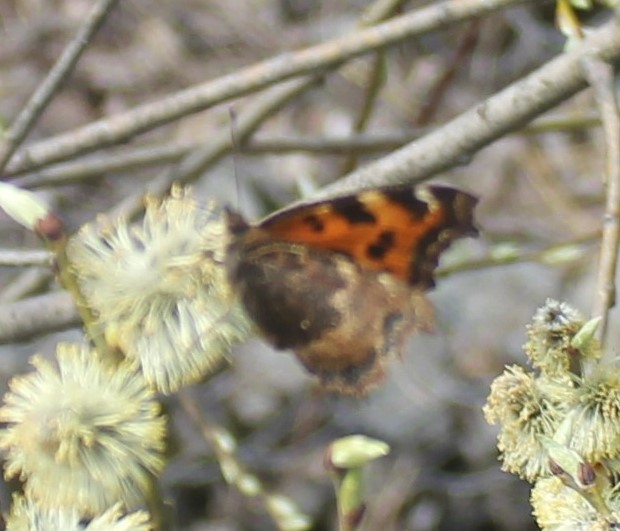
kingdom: Animalia
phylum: Arthropoda
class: Insecta
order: Lepidoptera
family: Nymphalidae
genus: Nymphalis
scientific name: Nymphalis xanthomelas
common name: Scarce tortoiseshell
